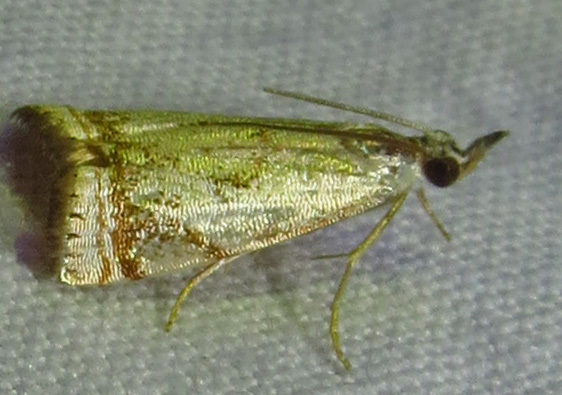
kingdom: Animalia
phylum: Arthropoda
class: Insecta
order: Lepidoptera
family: Crambidae
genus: Microcrambus
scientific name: Microcrambus elegans
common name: Elegant grass-veneer
